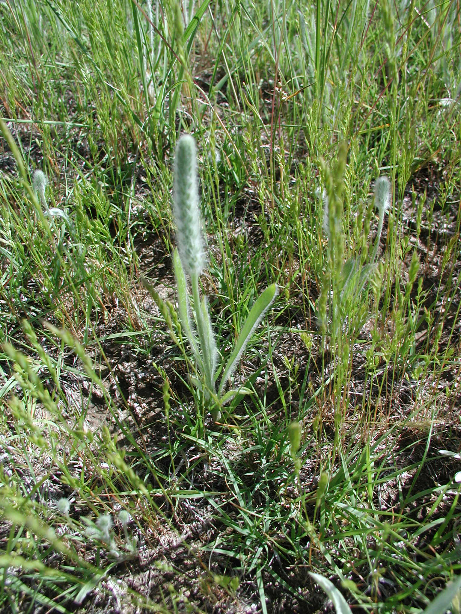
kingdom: Plantae
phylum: Tracheophyta
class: Magnoliopsida
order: Lamiales
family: Plantaginaceae
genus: Plantago
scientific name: Plantago patagonica
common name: Patagonia indian-wheat
